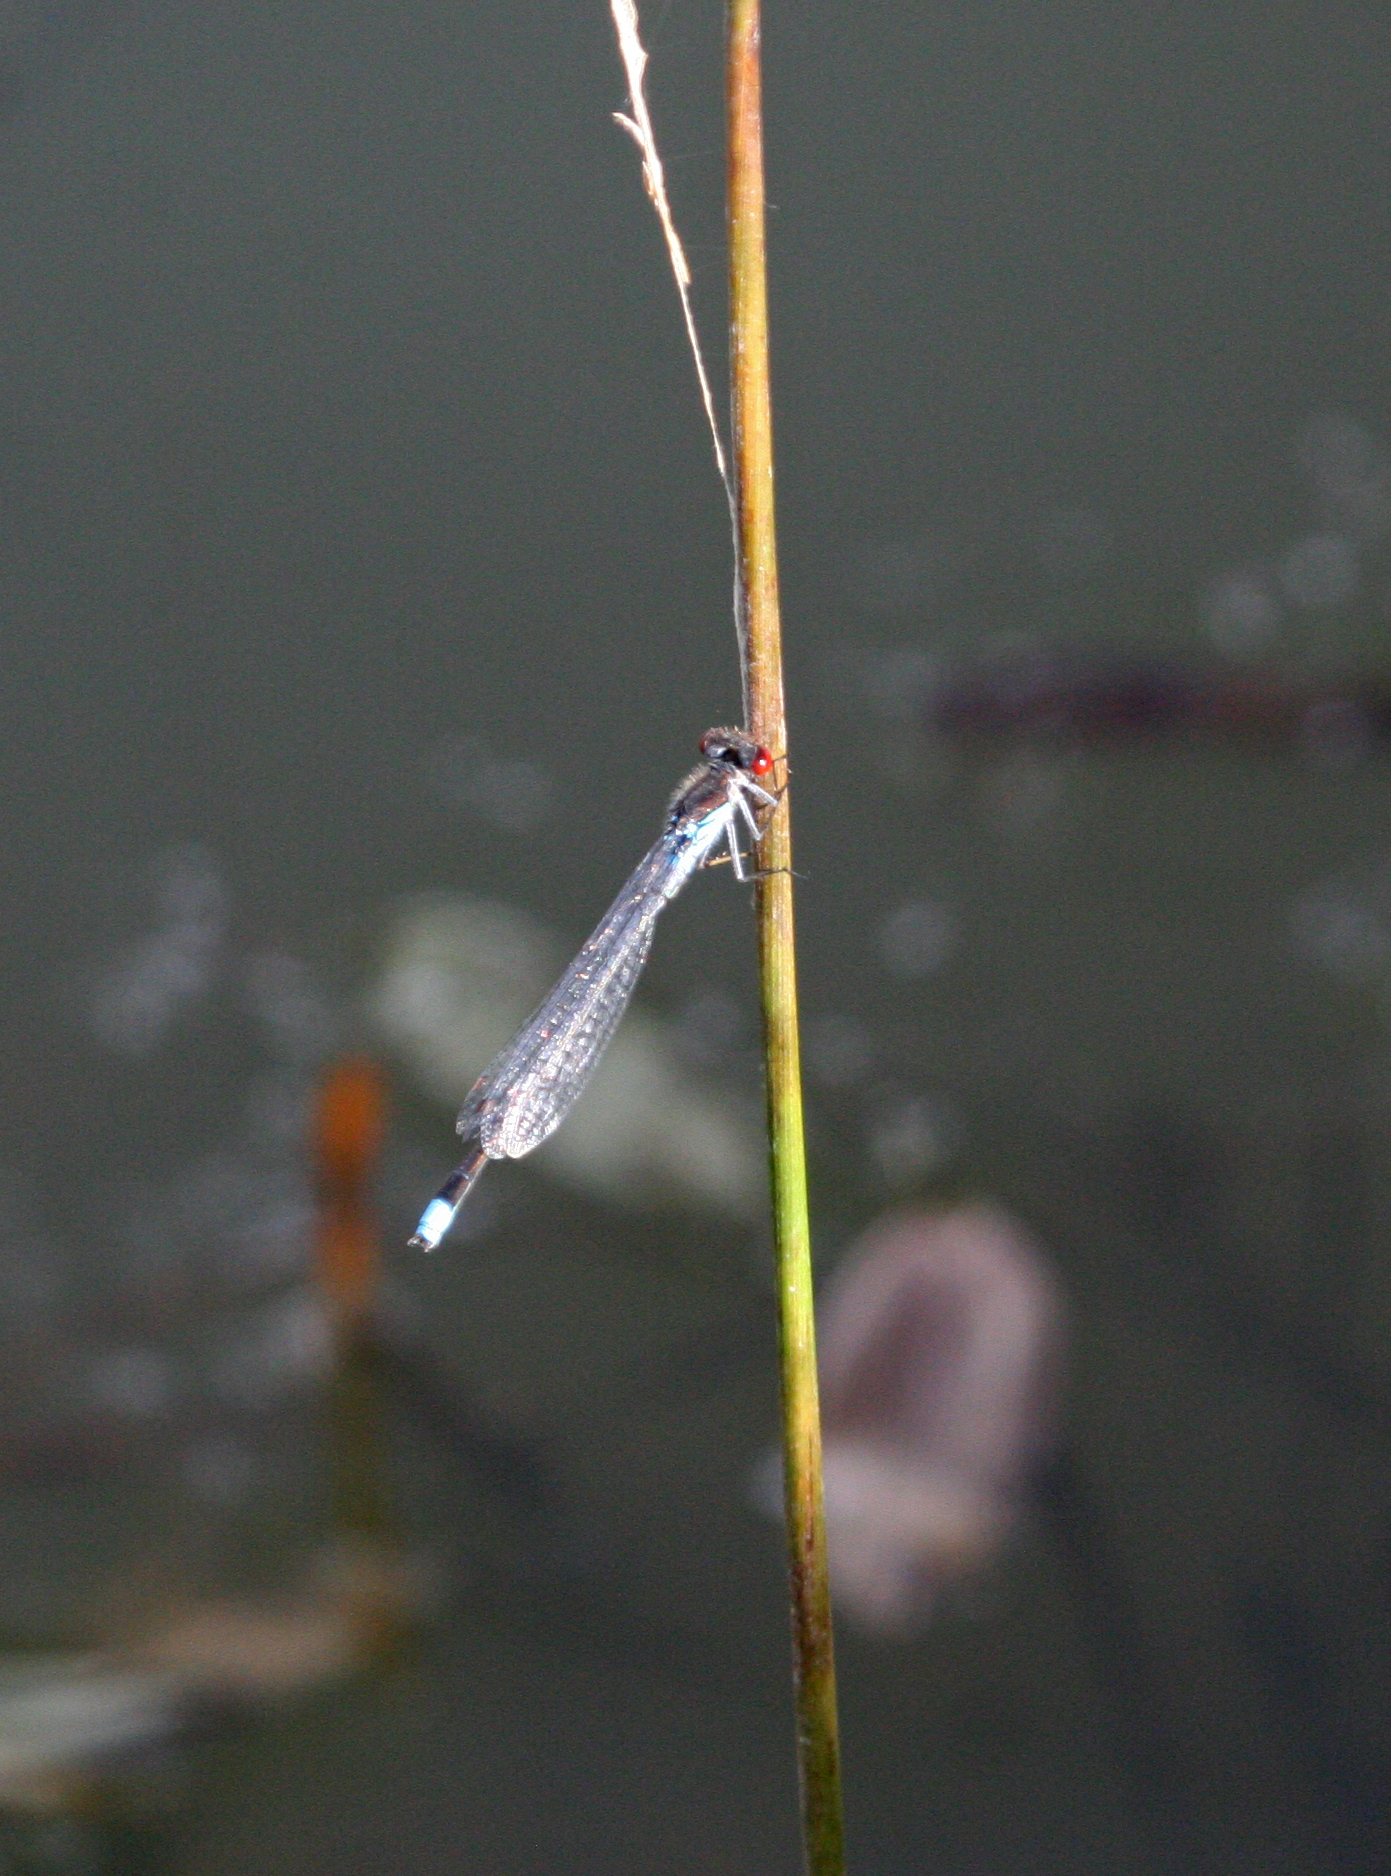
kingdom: Animalia
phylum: Arthropoda
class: Insecta
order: Odonata
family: Coenagrionidae
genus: Erythromma
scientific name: Erythromma najas
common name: Red-eyed damselfly
